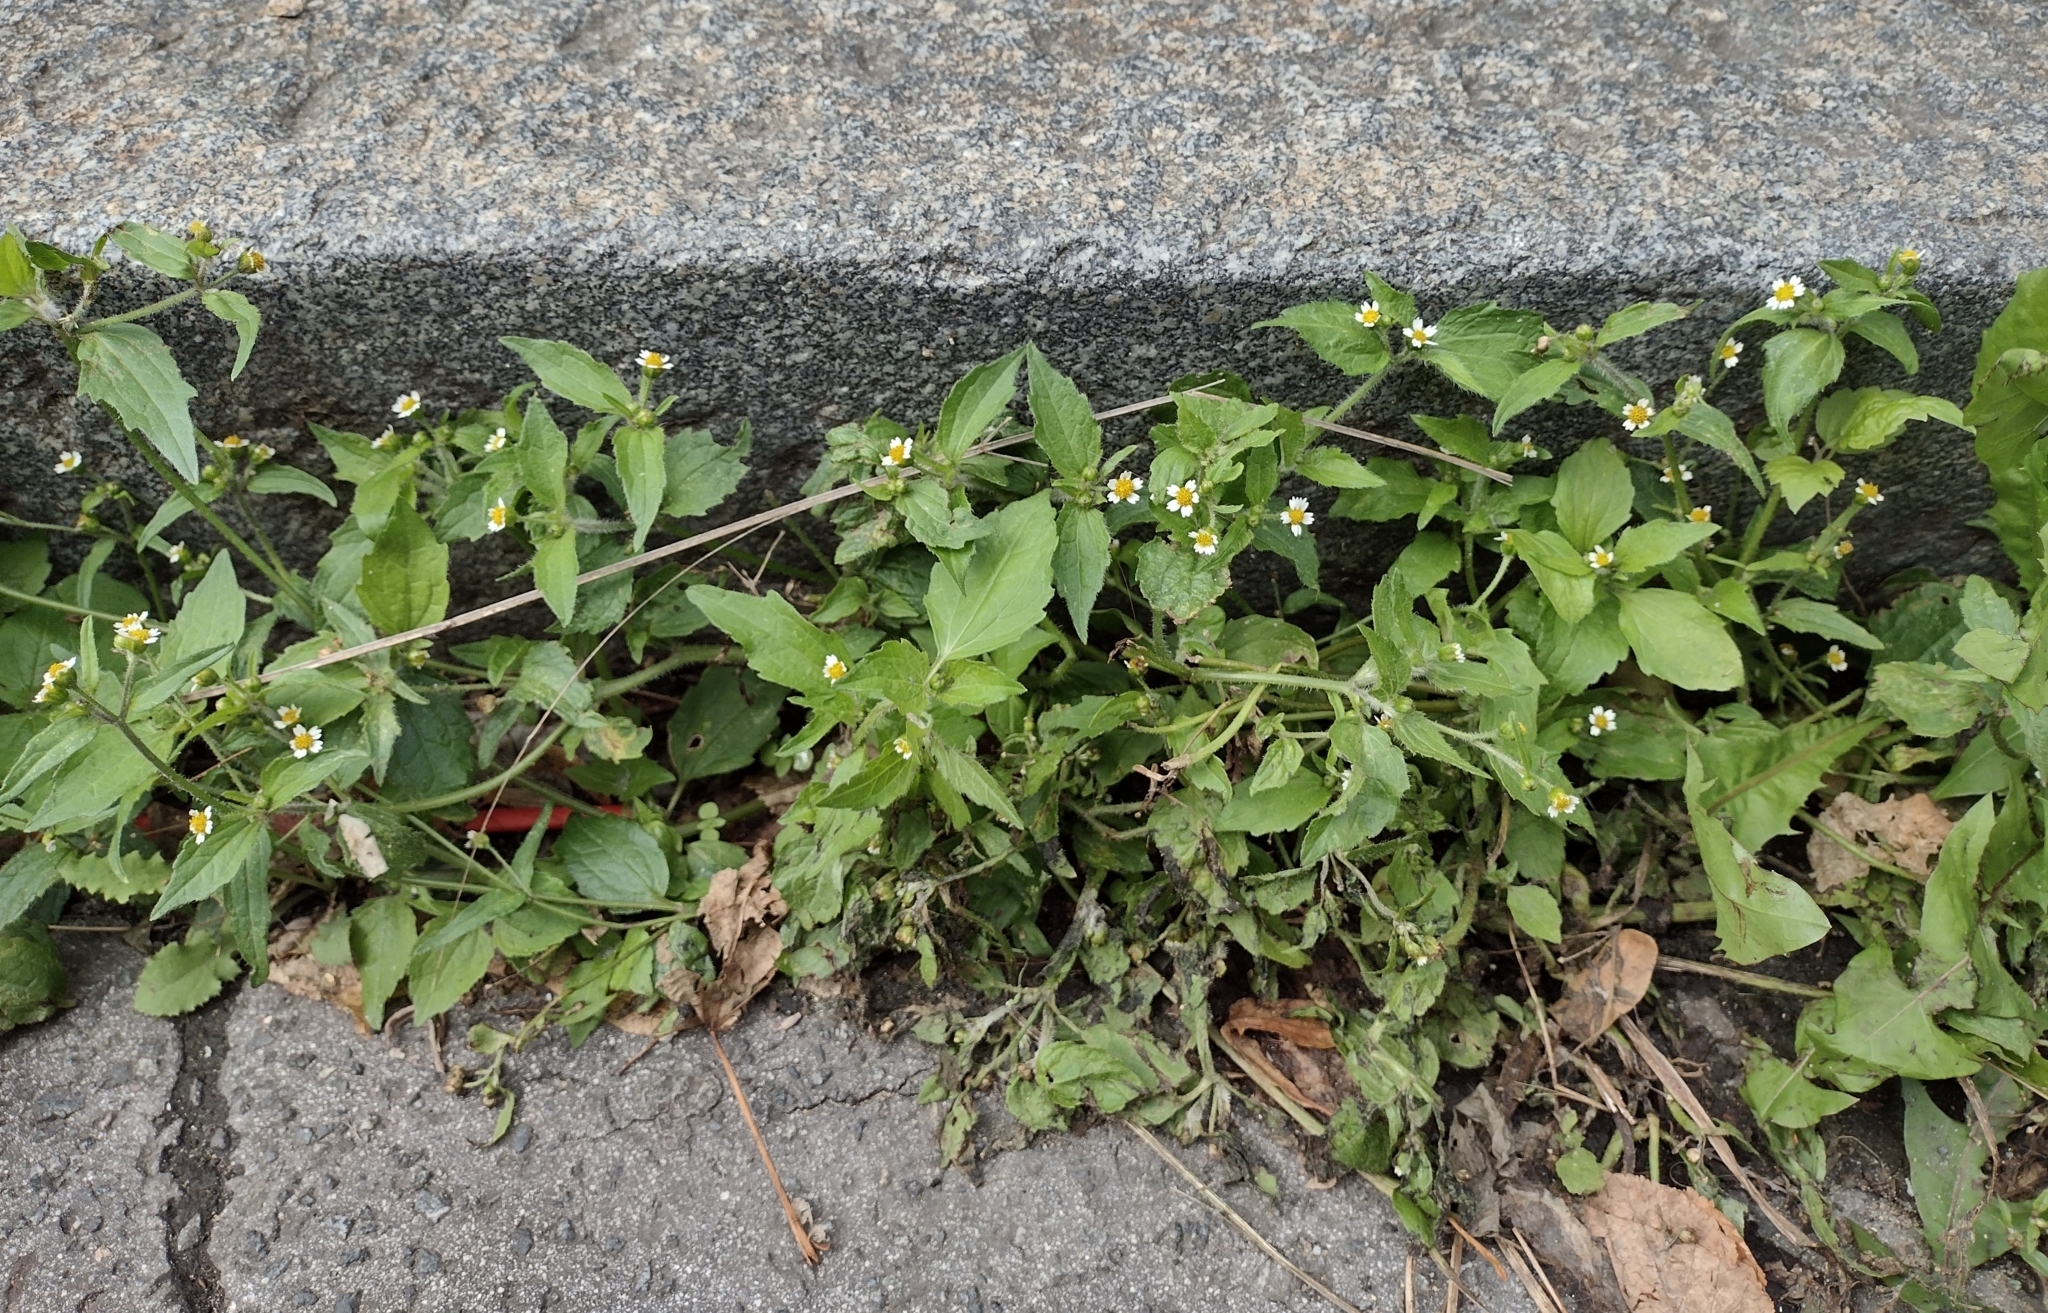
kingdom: Plantae
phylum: Tracheophyta
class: Magnoliopsida
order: Asterales
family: Asteraceae
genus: Galinsoga
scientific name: Galinsoga quadriradiata
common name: Shaggy soldier
